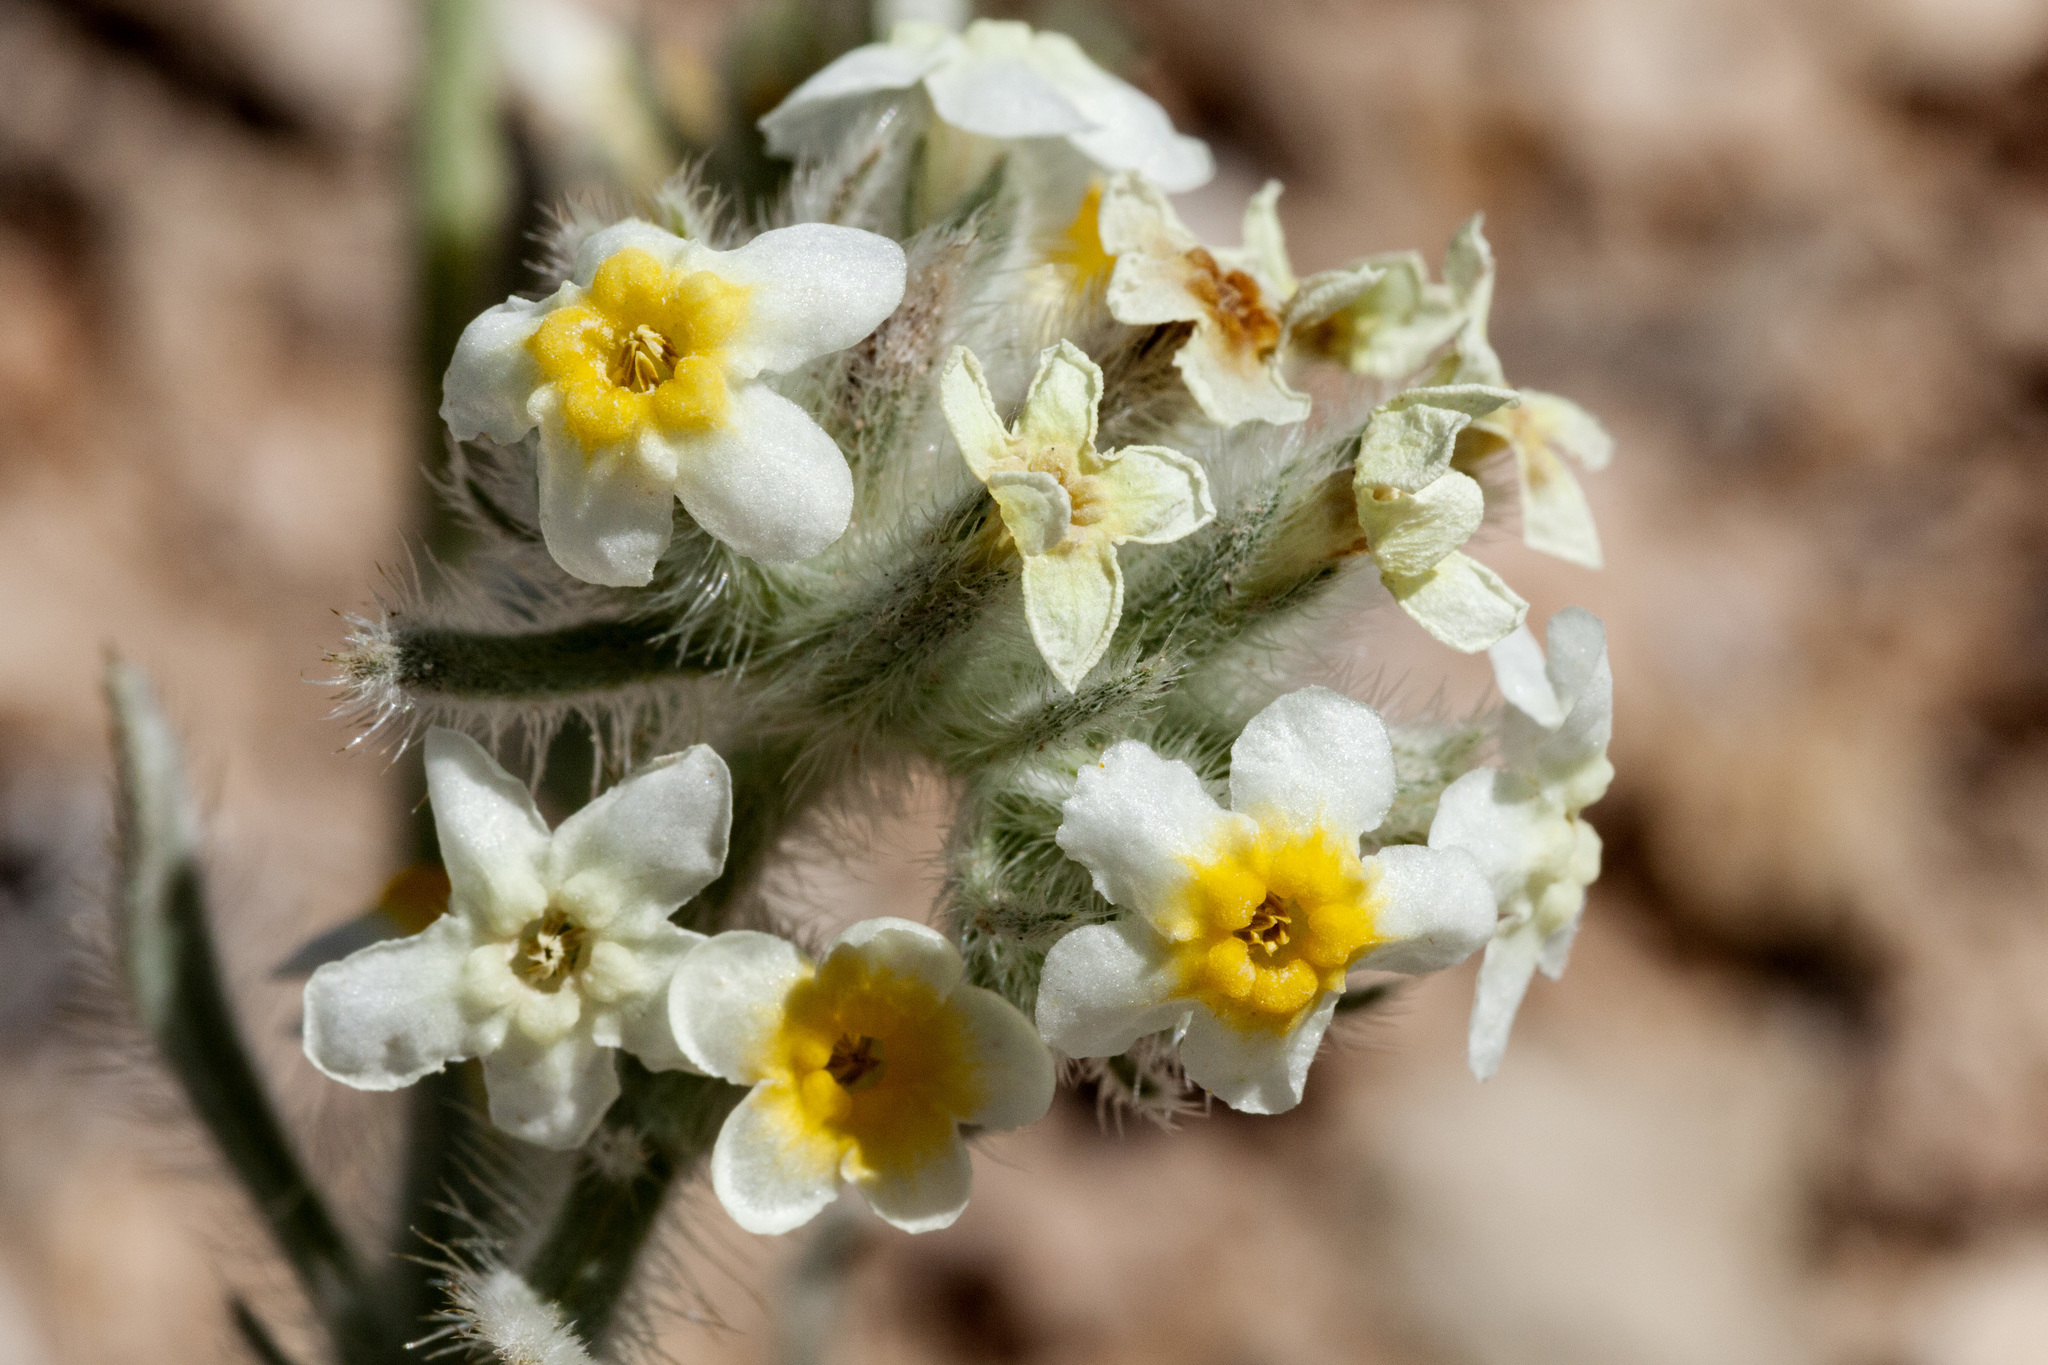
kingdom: Plantae
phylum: Tracheophyta
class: Magnoliopsida
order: Boraginales
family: Boraginaceae
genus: Oreocarya
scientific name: Oreocarya paysonii
